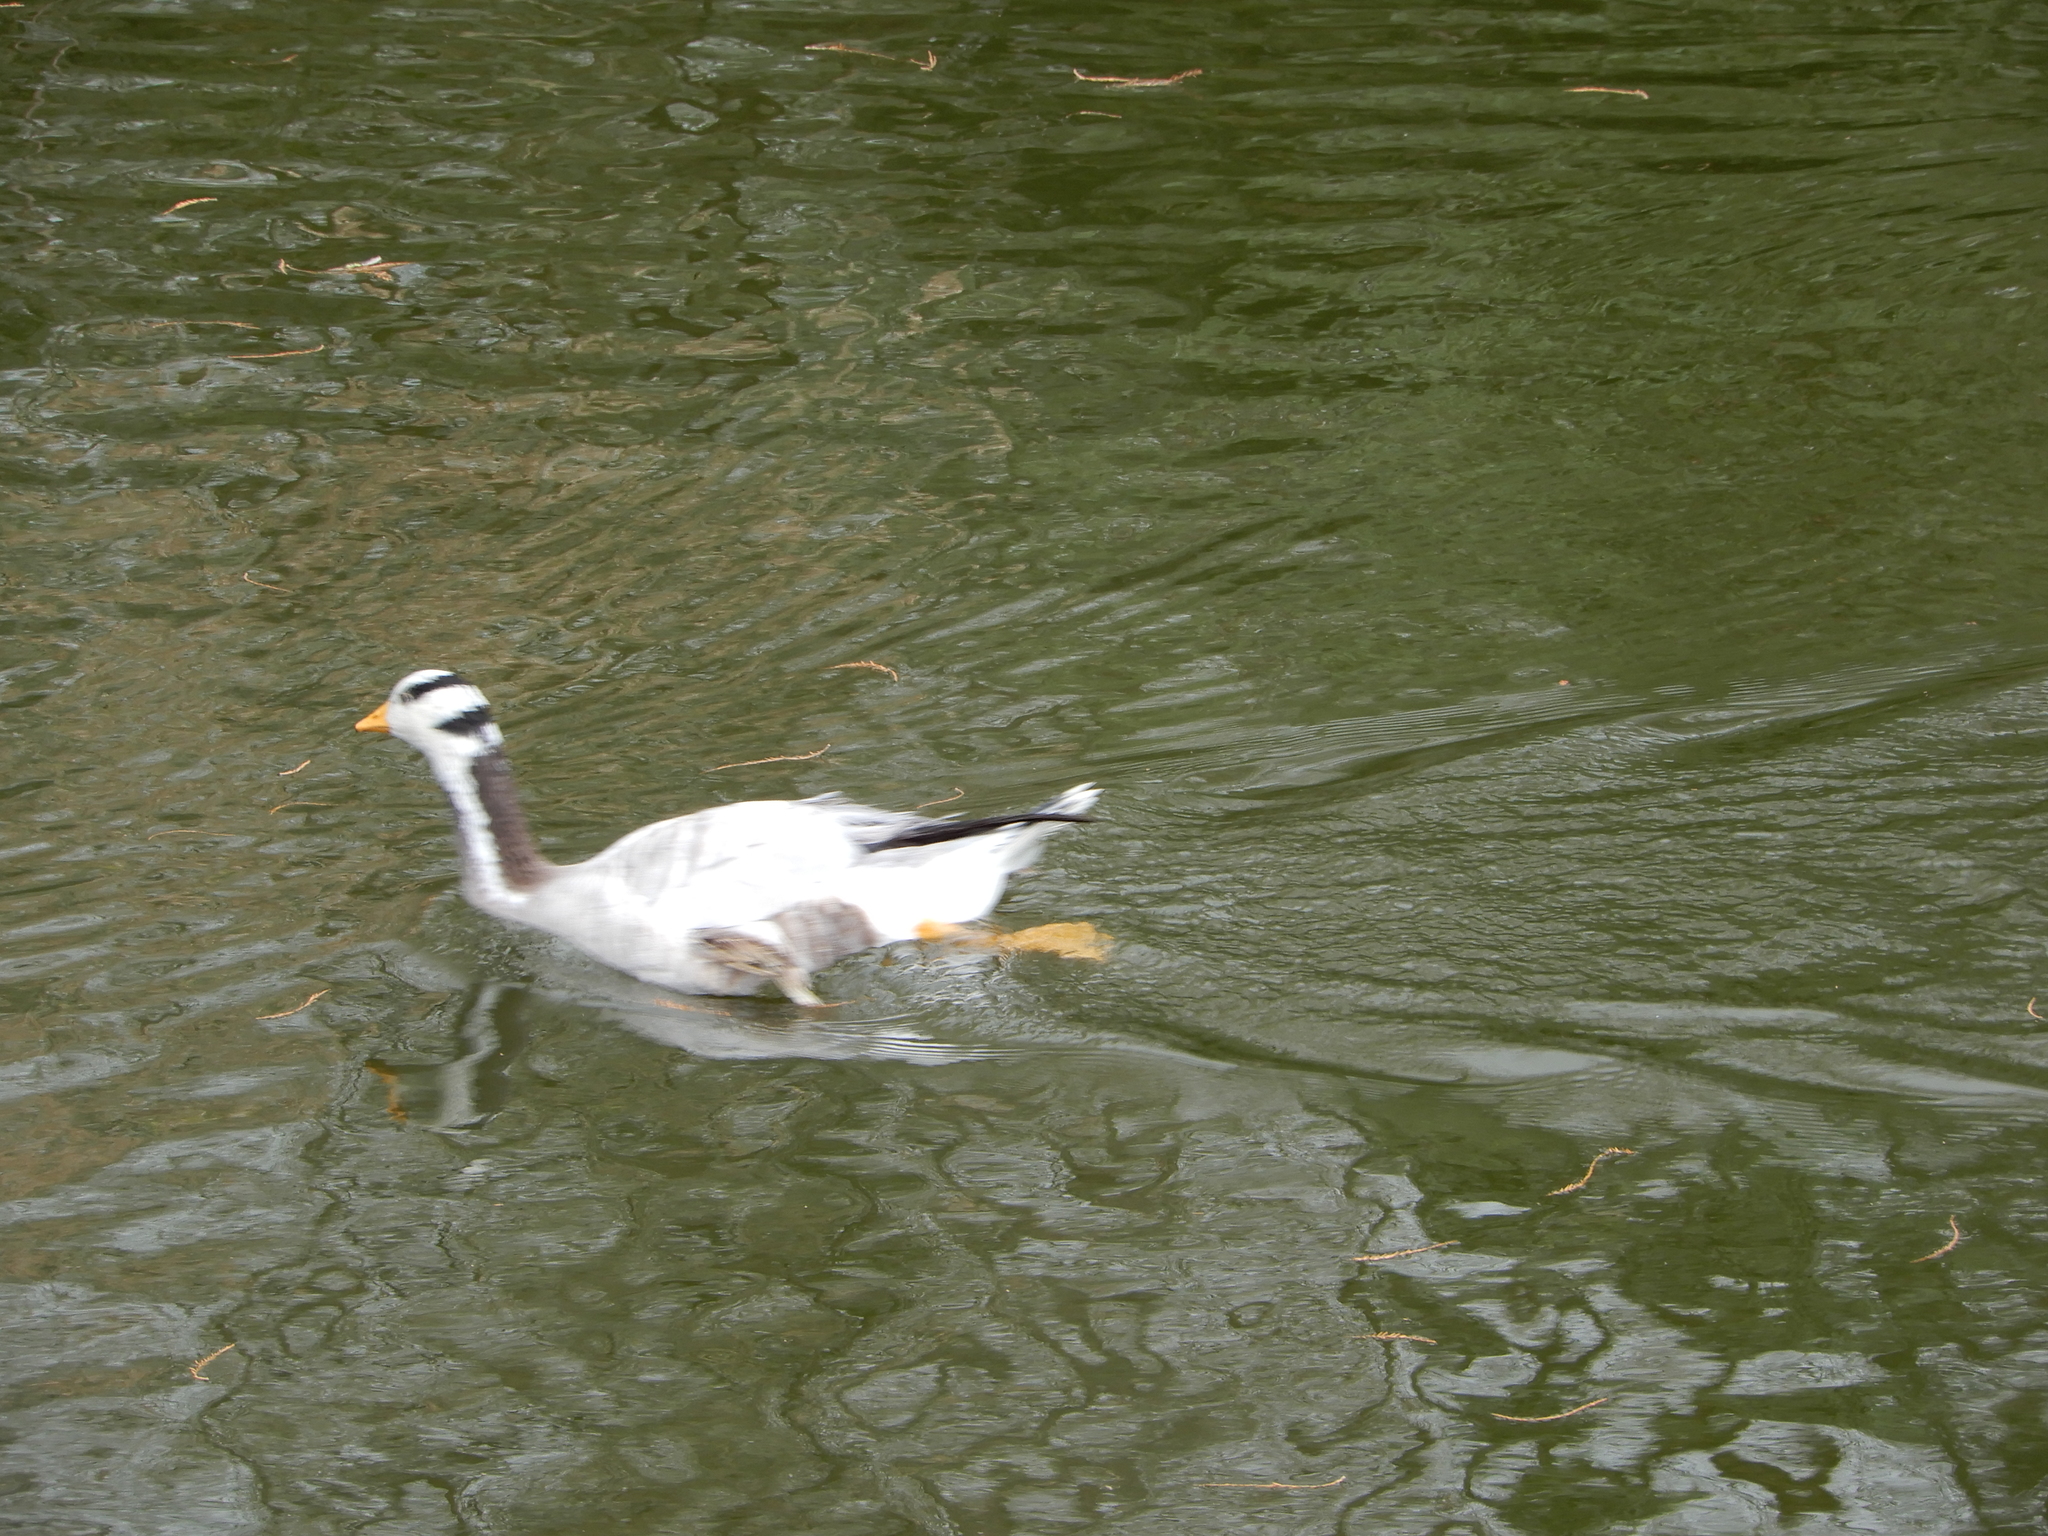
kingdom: Animalia
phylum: Chordata
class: Aves
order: Anseriformes
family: Anatidae
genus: Anser
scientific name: Anser indicus
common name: Bar-headed goose
